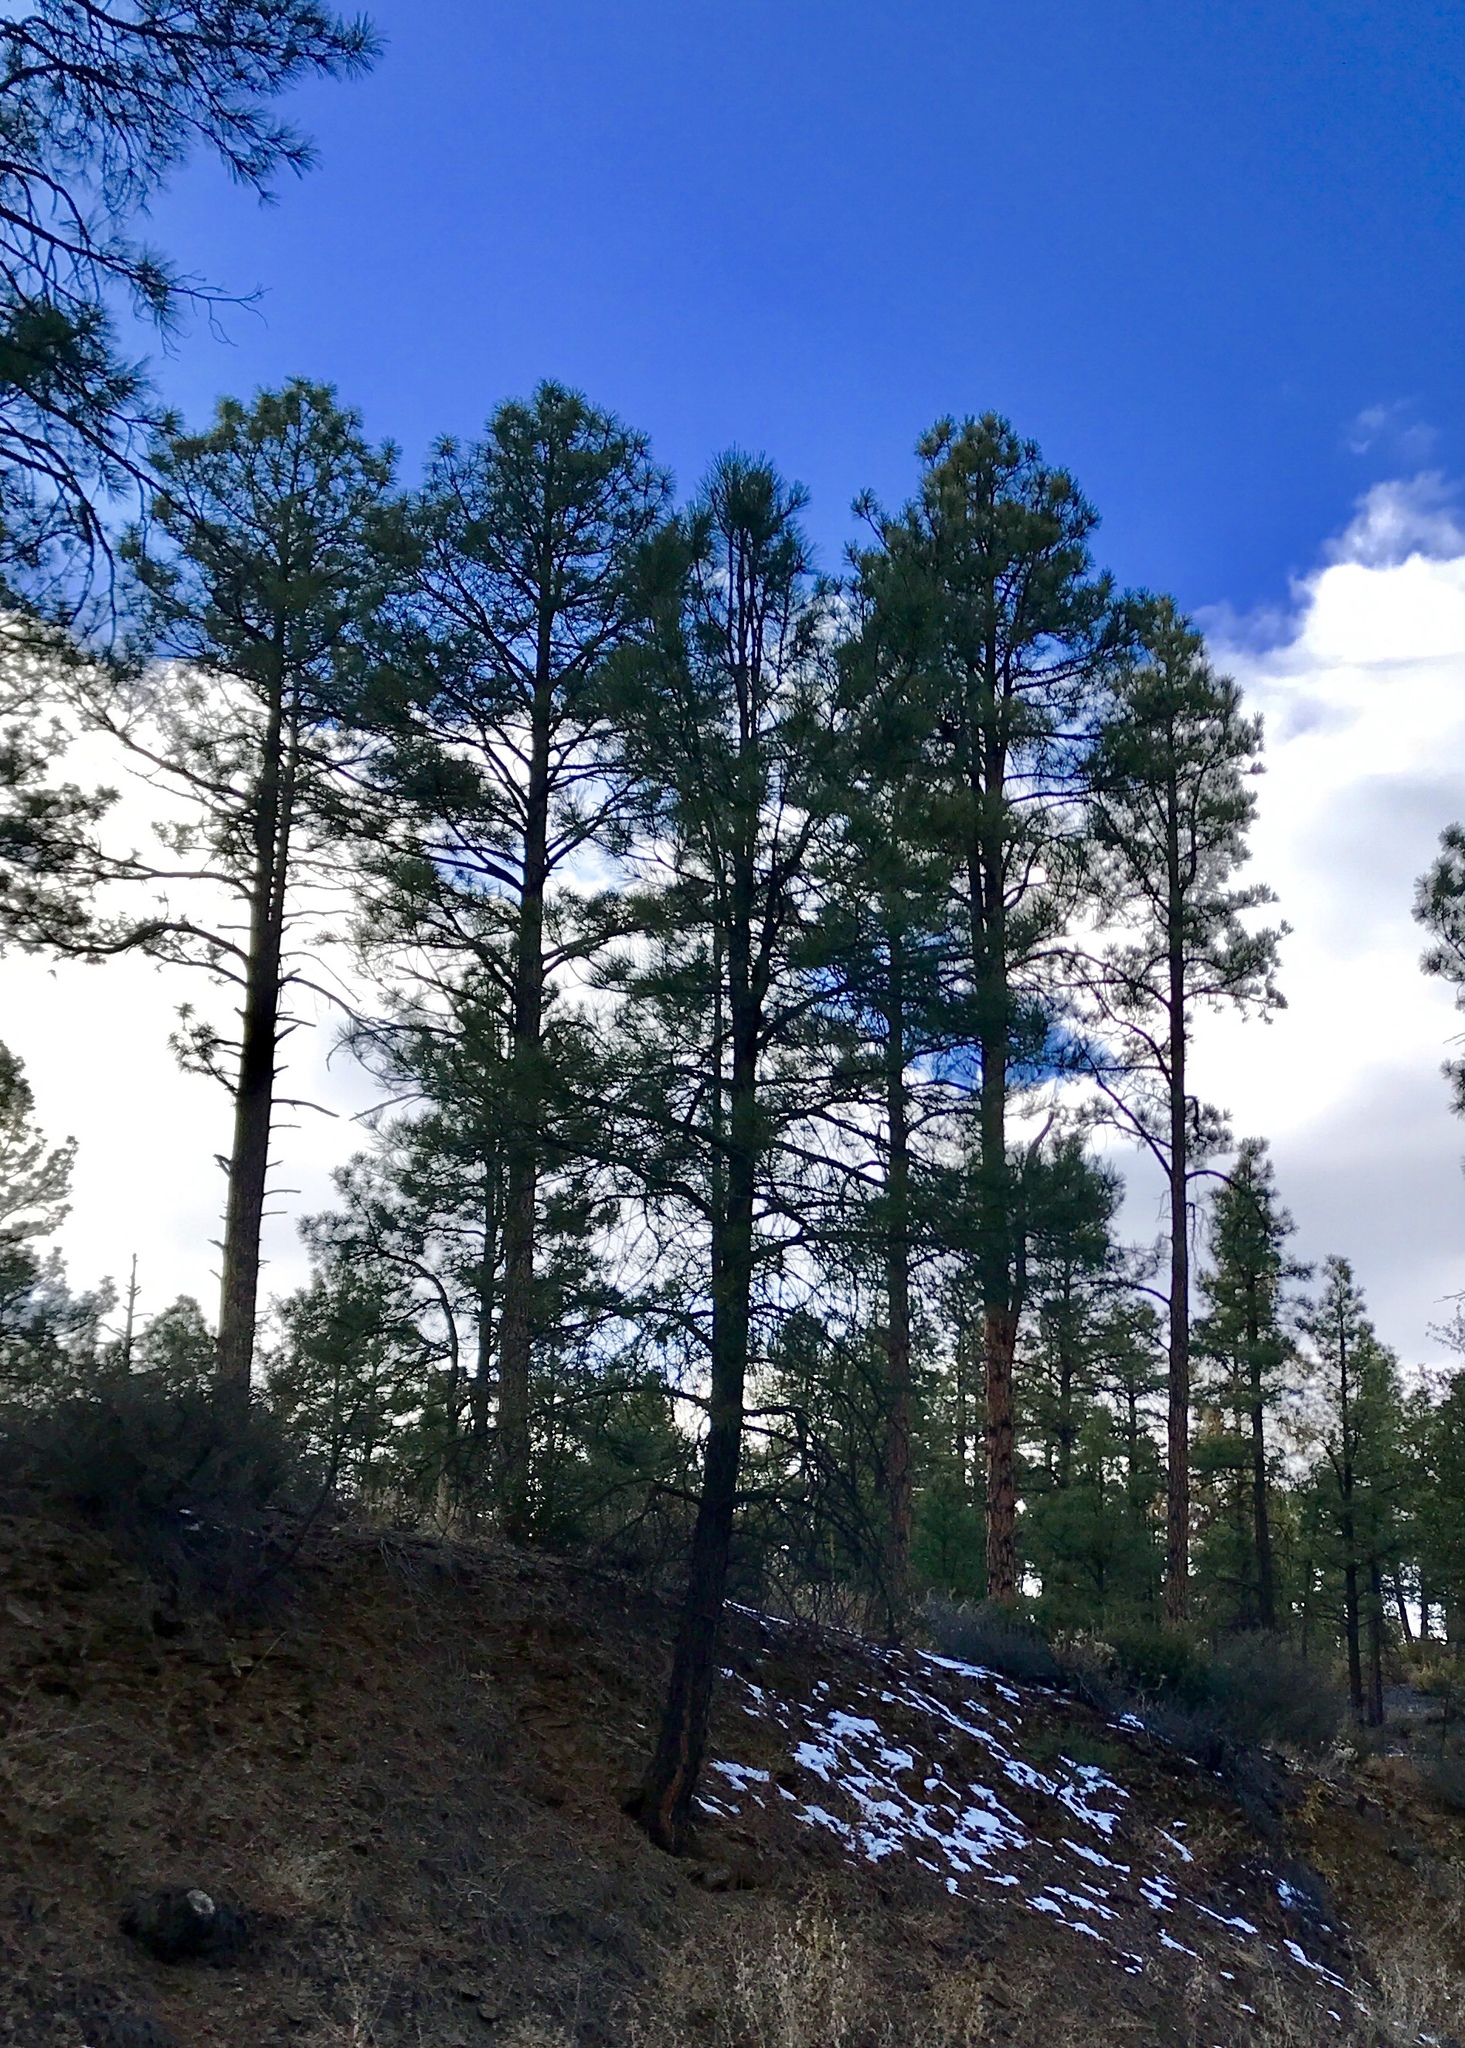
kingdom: Plantae
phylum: Tracheophyta
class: Pinopsida
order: Pinales
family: Pinaceae
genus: Pinus
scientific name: Pinus ponderosa
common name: Western yellow-pine
